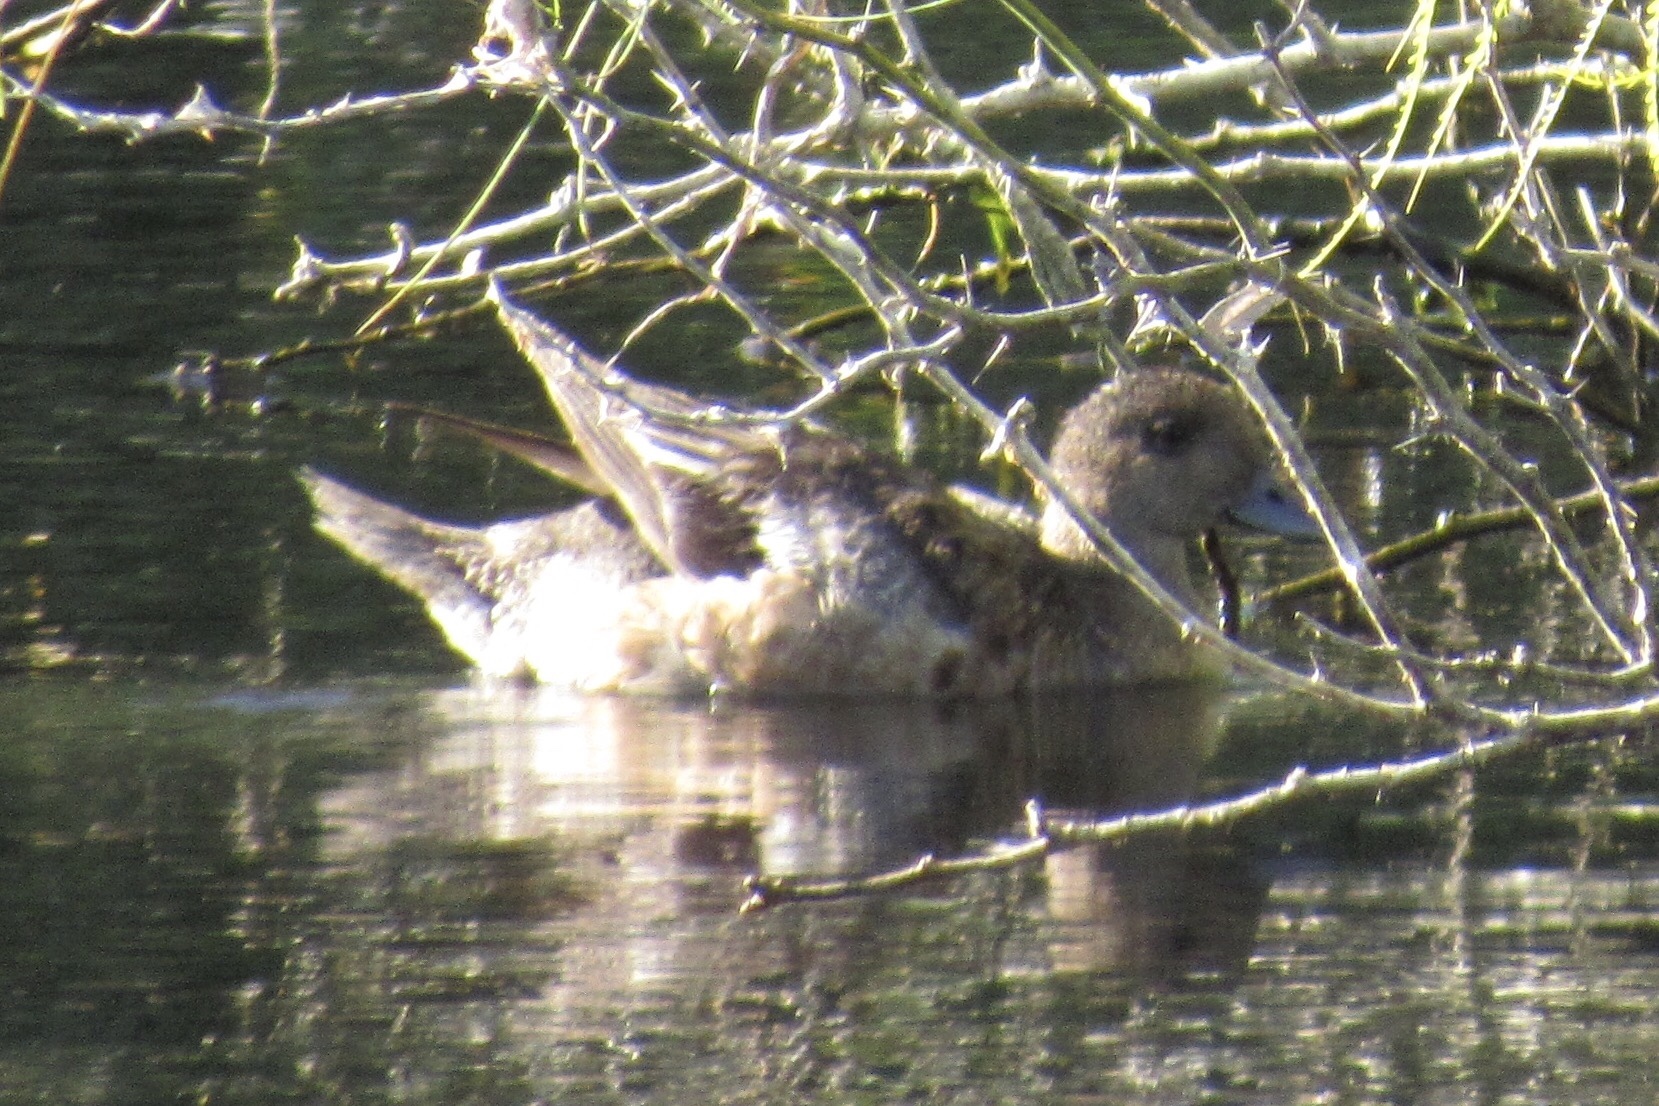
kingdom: Animalia
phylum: Chordata
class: Aves
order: Anseriformes
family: Anatidae
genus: Mareca
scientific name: Mareca americana
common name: American wigeon
